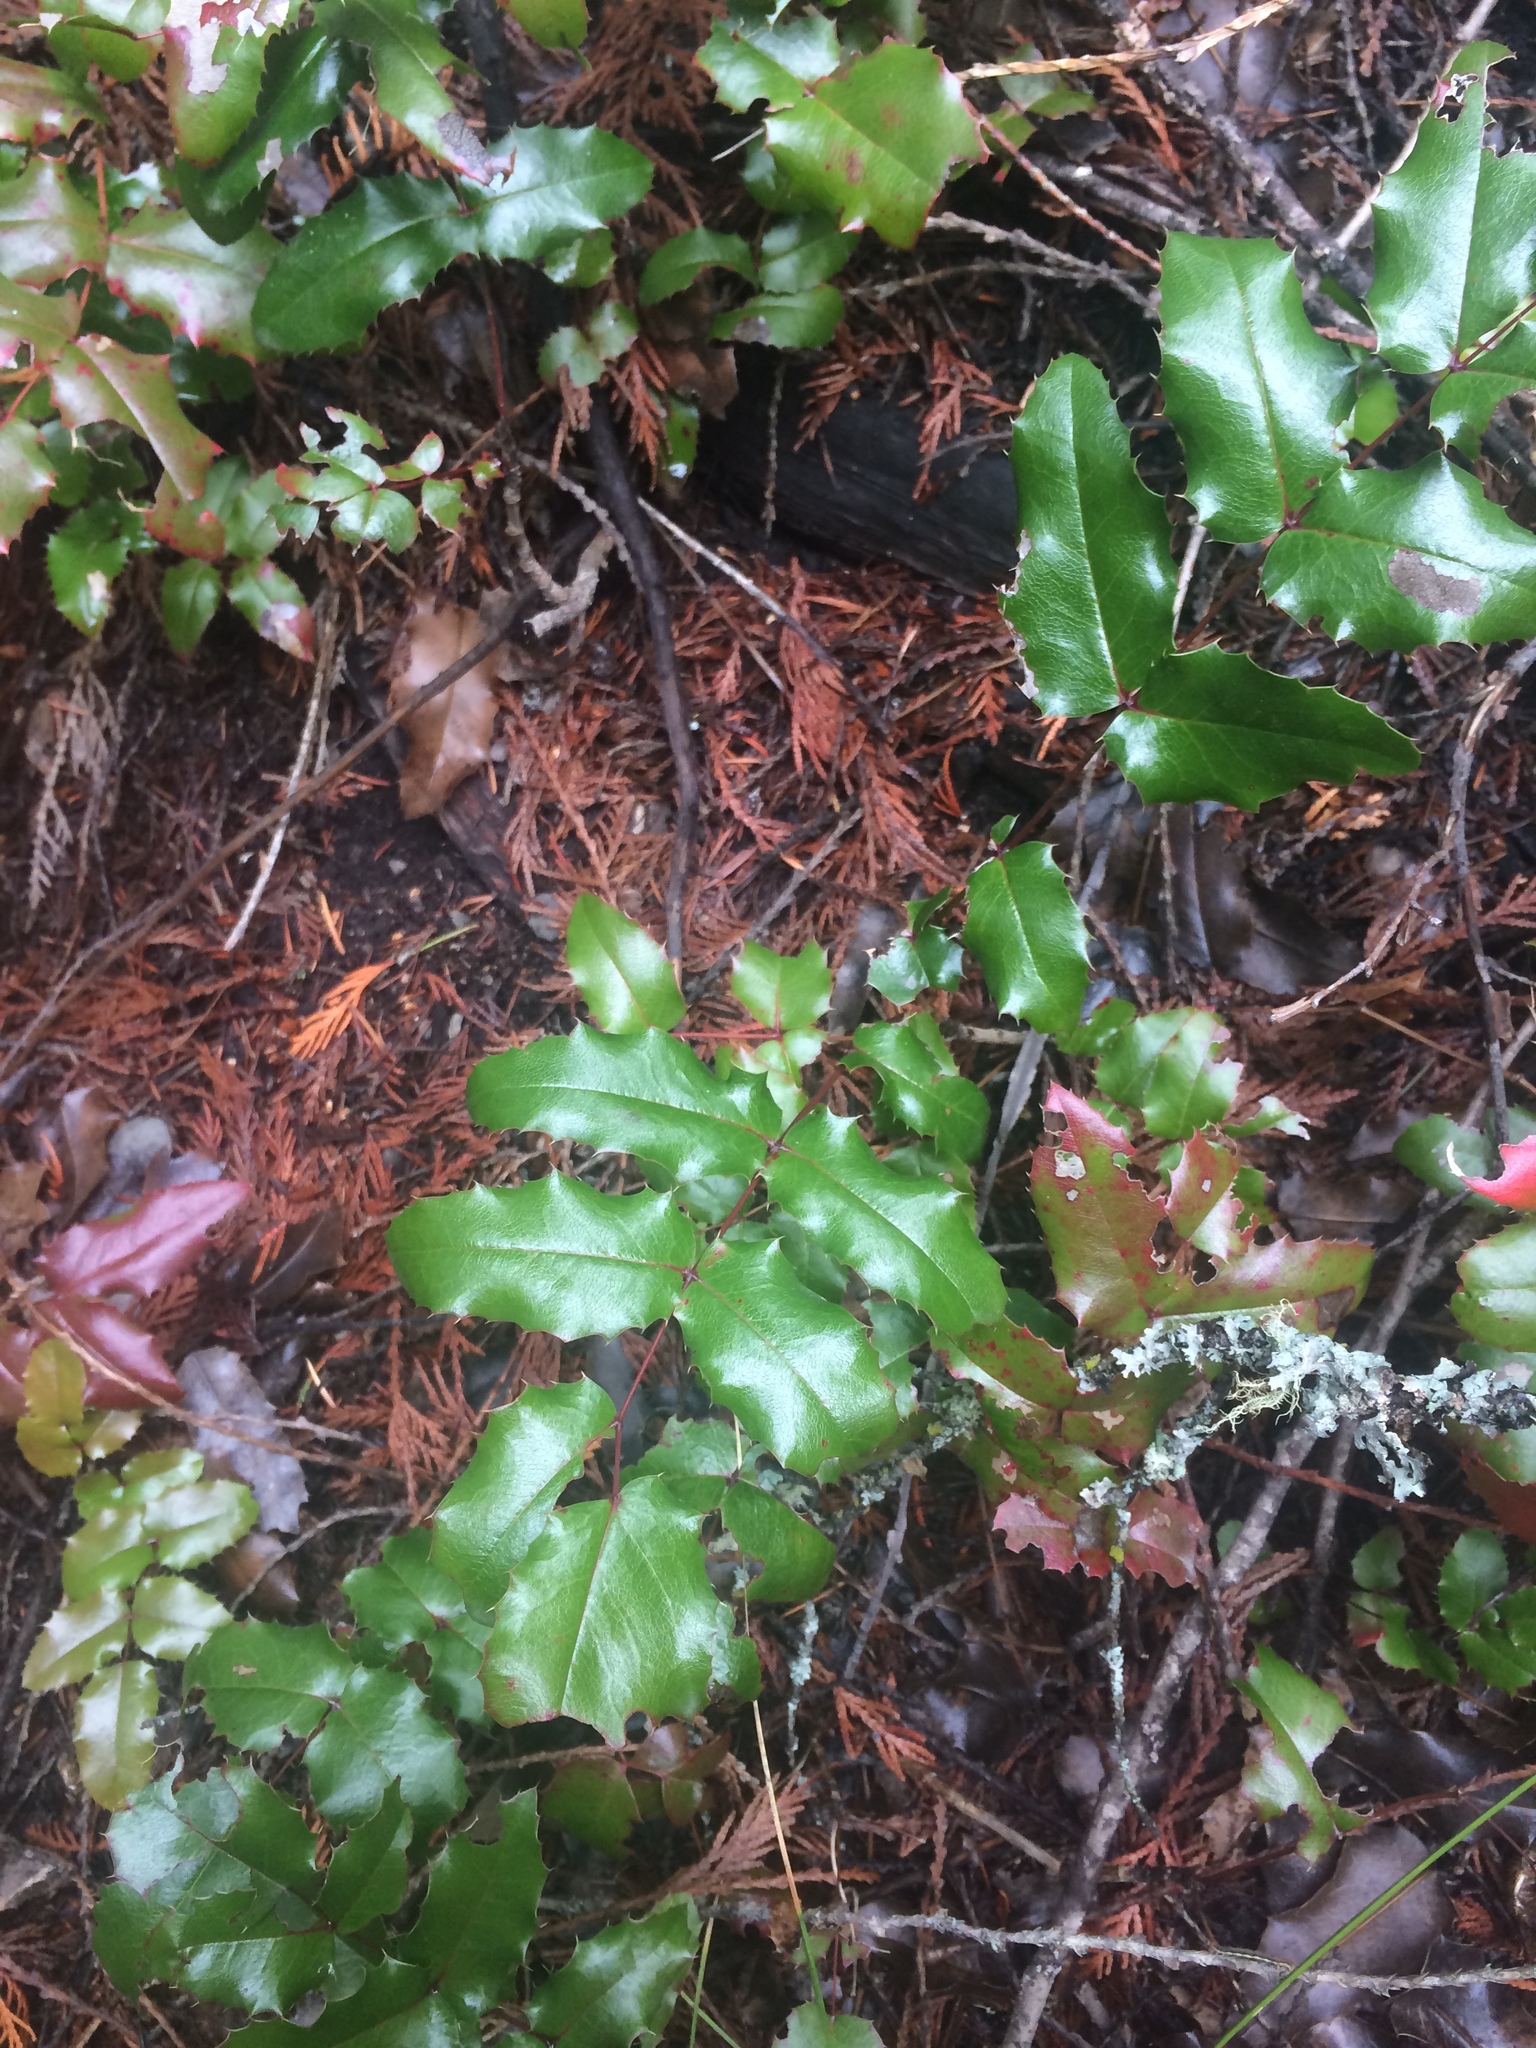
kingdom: Plantae
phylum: Tracheophyta
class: Magnoliopsida
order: Ranunculales
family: Berberidaceae
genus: Mahonia
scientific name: Mahonia aquifolium
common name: Oregon-grape
